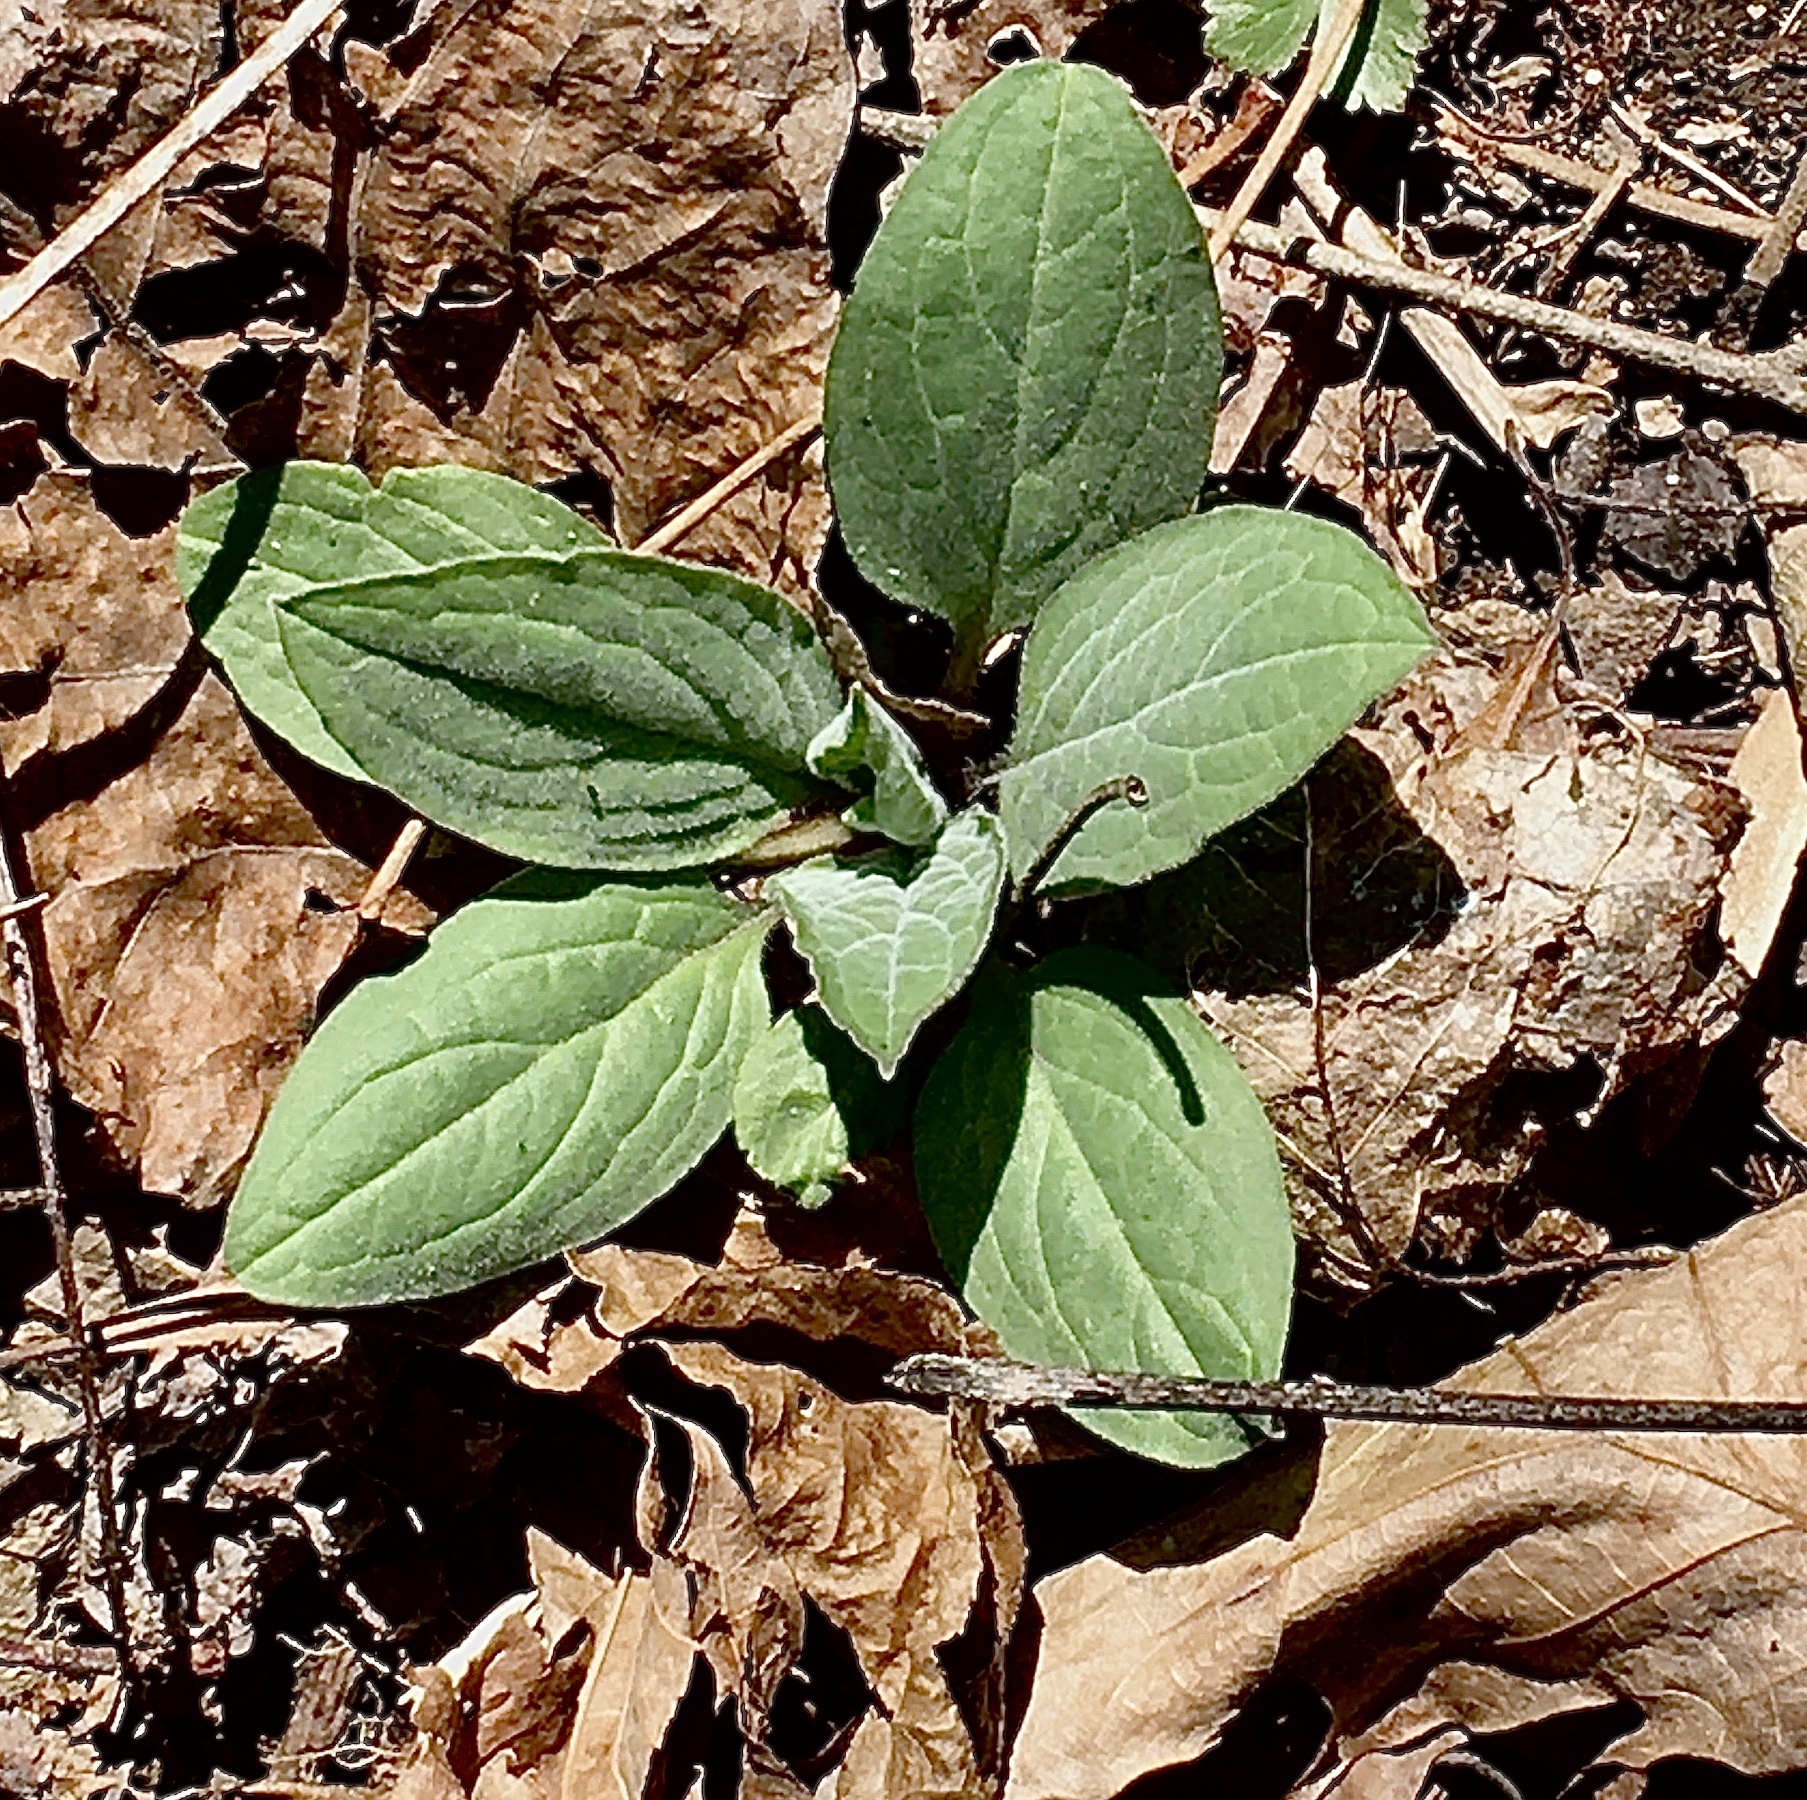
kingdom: Plantae
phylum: Tracheophyta
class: Magnoliopsida
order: Boraginales
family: Boraginaceae
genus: Hackelia
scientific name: Hackelia virginiana
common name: Beggar's-lice
